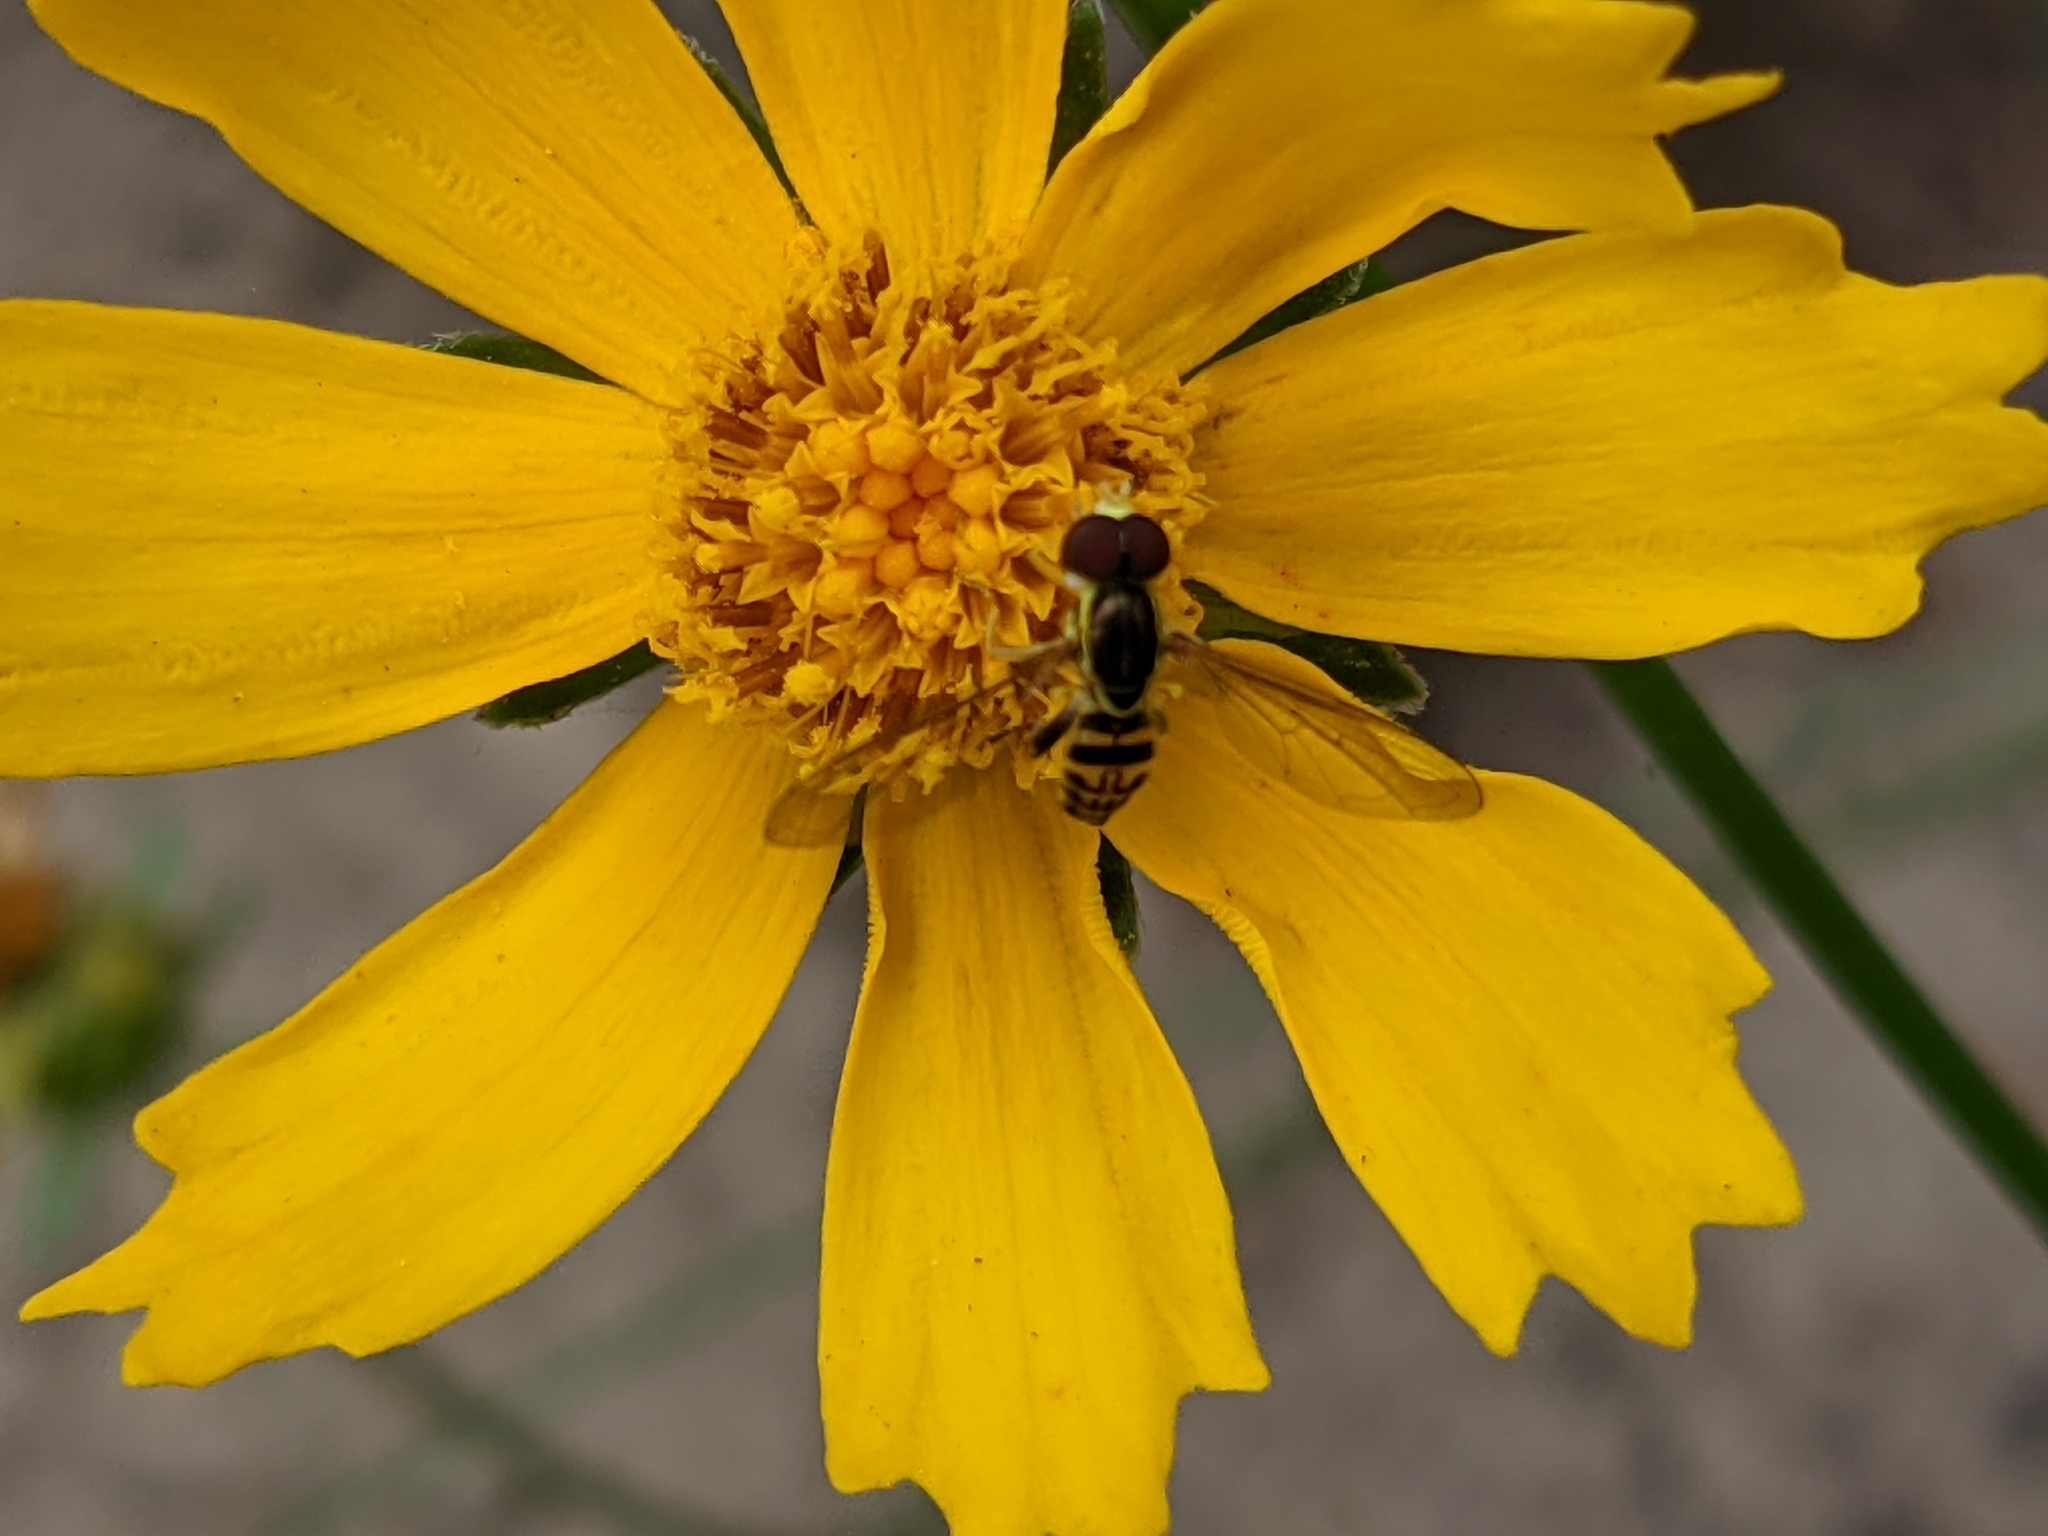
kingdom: Animalia
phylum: Arthropoda
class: Insecta
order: Diptera
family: Syrphidae
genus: Toxomerus
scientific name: Toxomerus geminatus
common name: Eastern calligrapher
